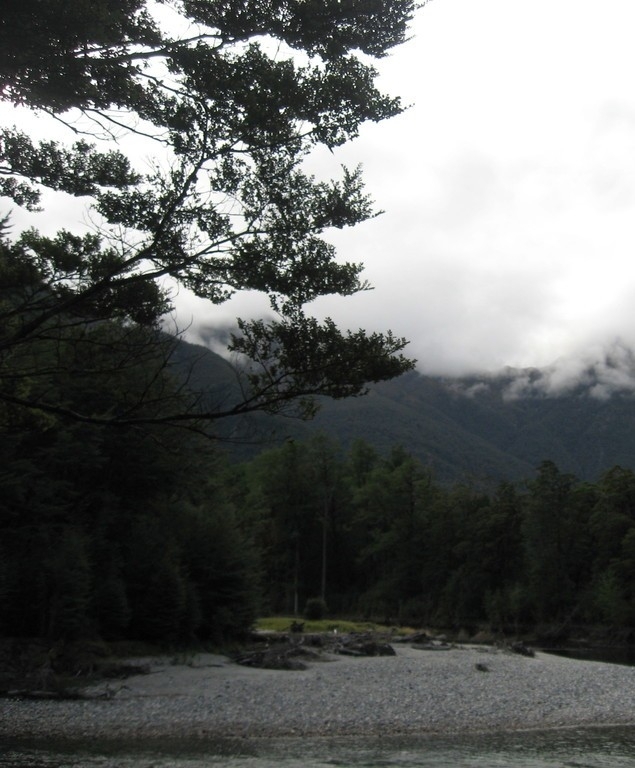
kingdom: Plantae
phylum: Tracheophyta
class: Magnoliopsida
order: Fagales
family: Nothofagaceae
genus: Nothofagus
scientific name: Nothofagus menziesii
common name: Silver beech
